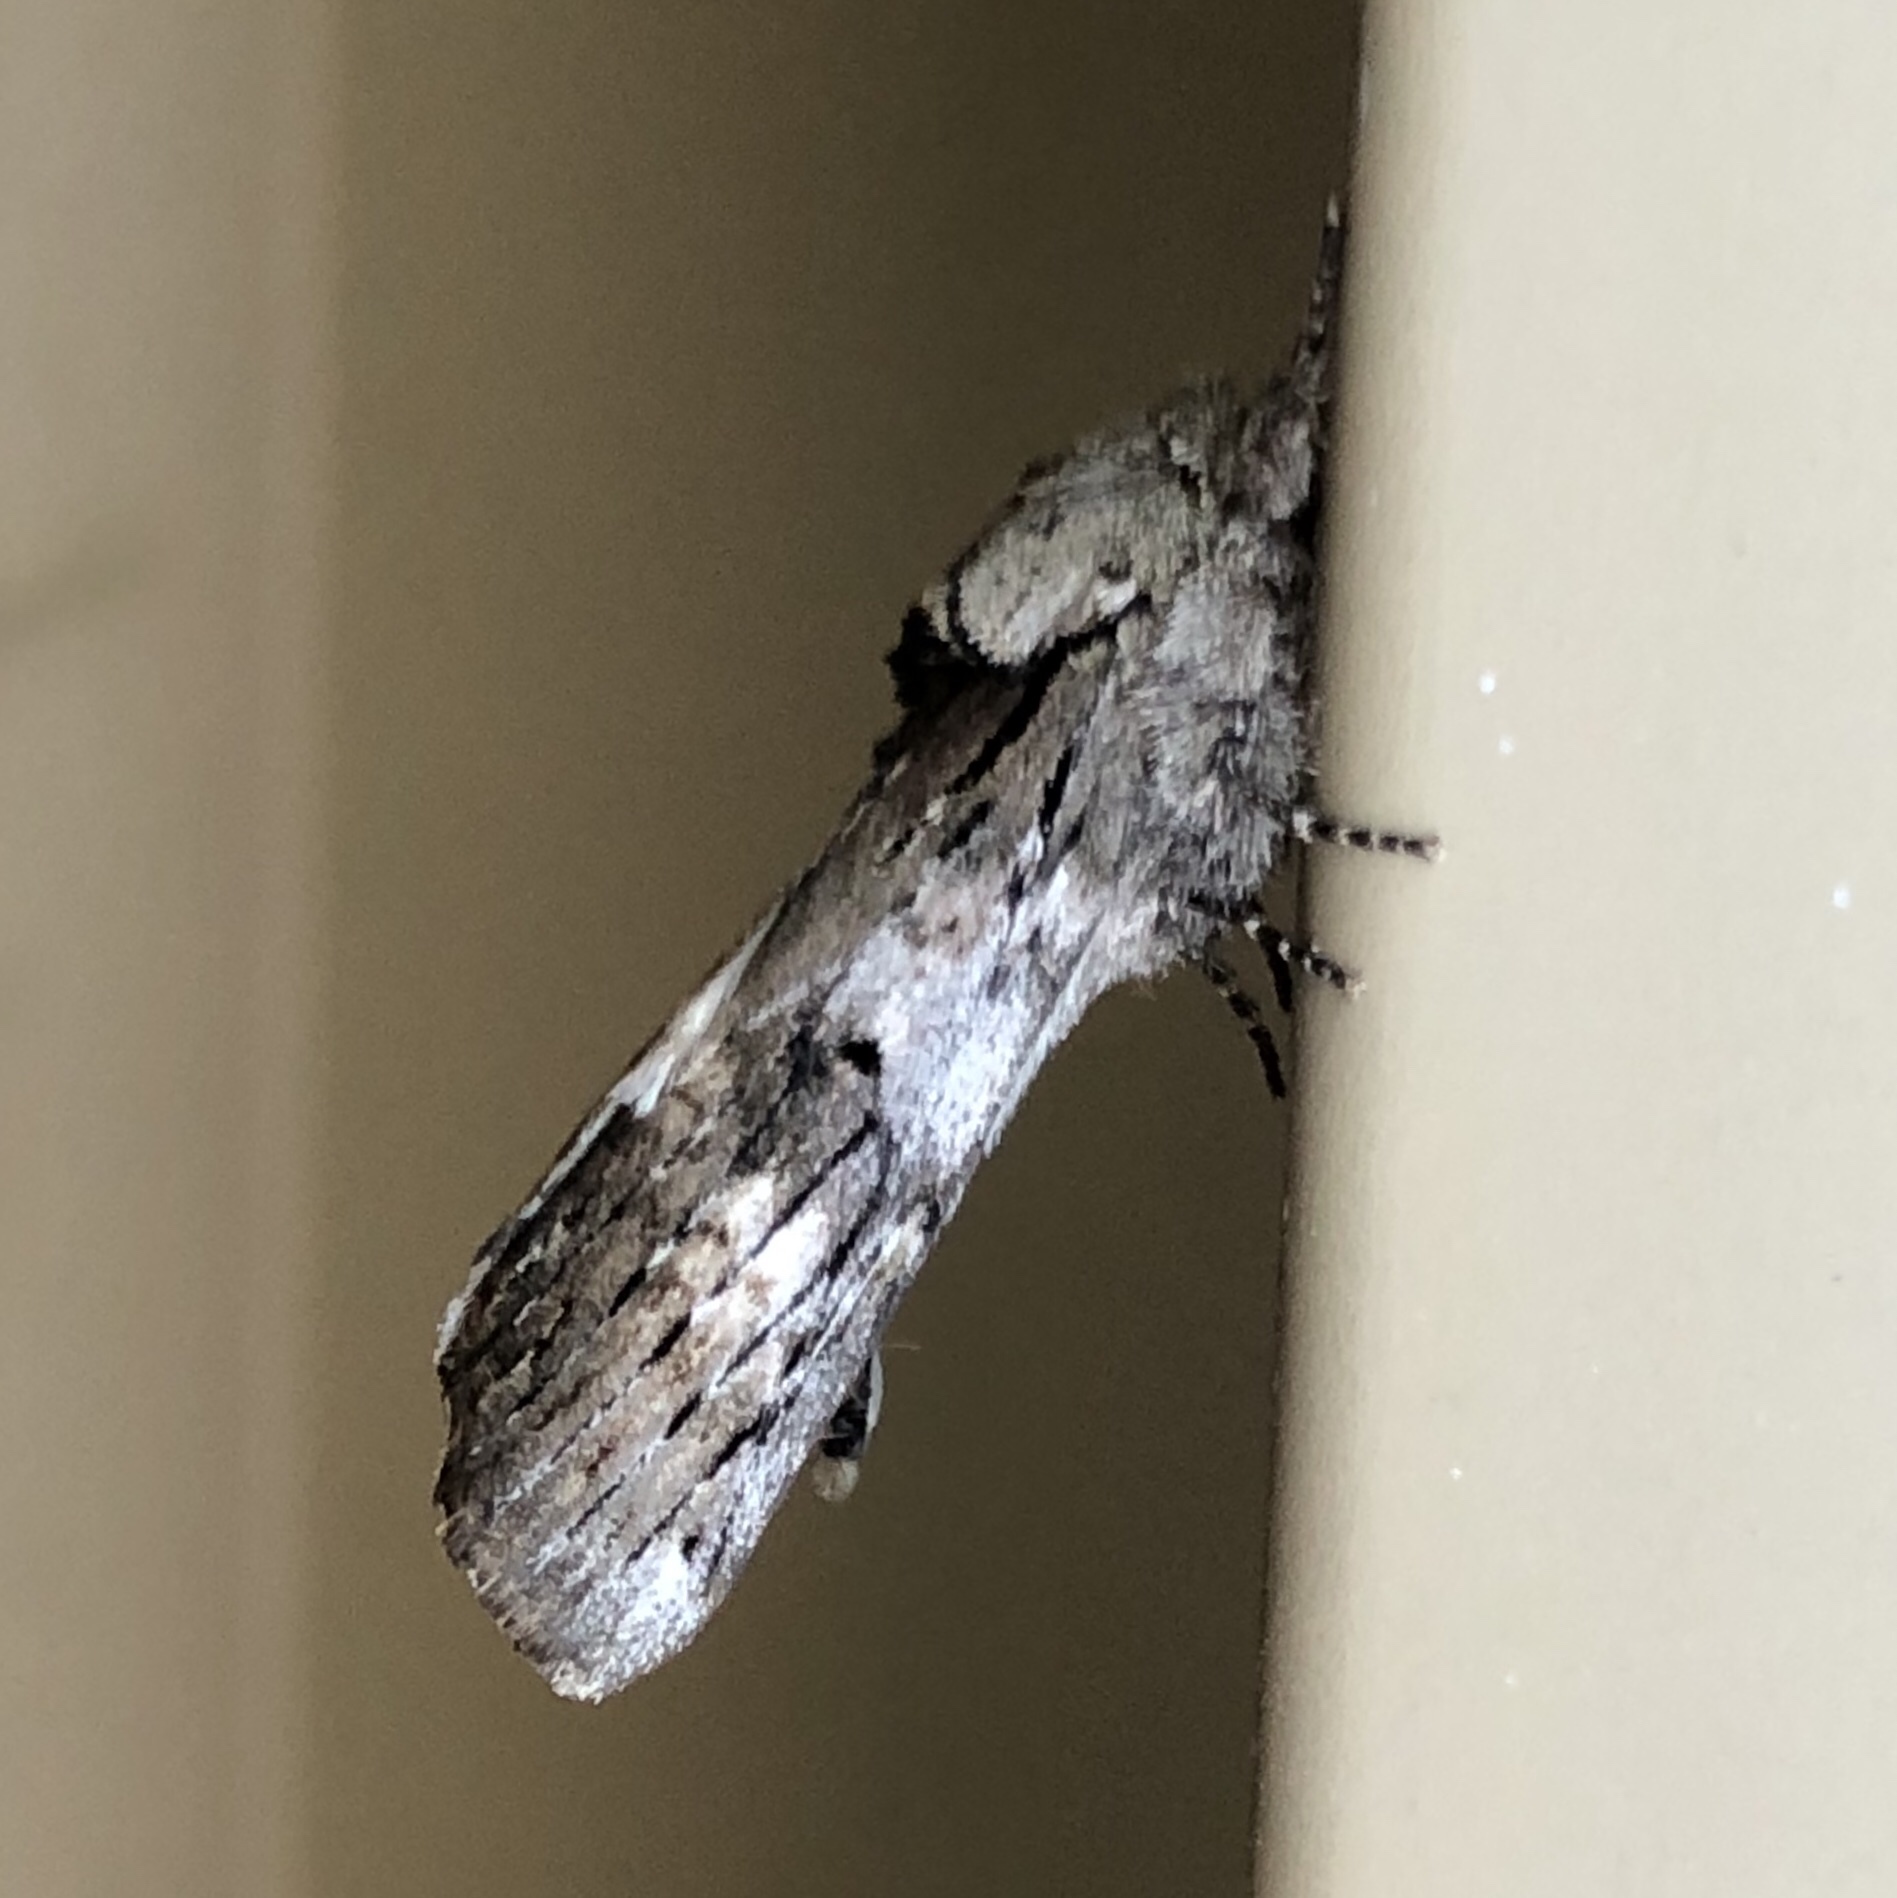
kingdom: Animalia
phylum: Arthropoda
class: Insecta
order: Lepidoptera
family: Notodontidae
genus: Schizura
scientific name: Schizura
